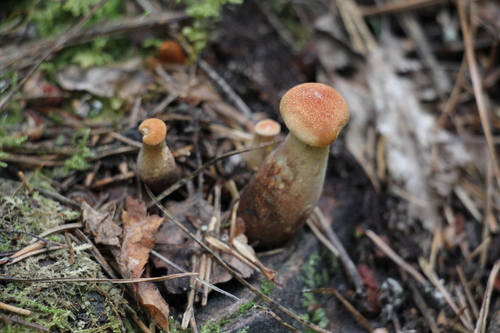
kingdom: Fungi
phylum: Basidiomycota
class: Agaricomycetes
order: Gloeophyllales
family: Gloeophyllaceae
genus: Neolentinus
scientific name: Neolentinus cyathiformis
